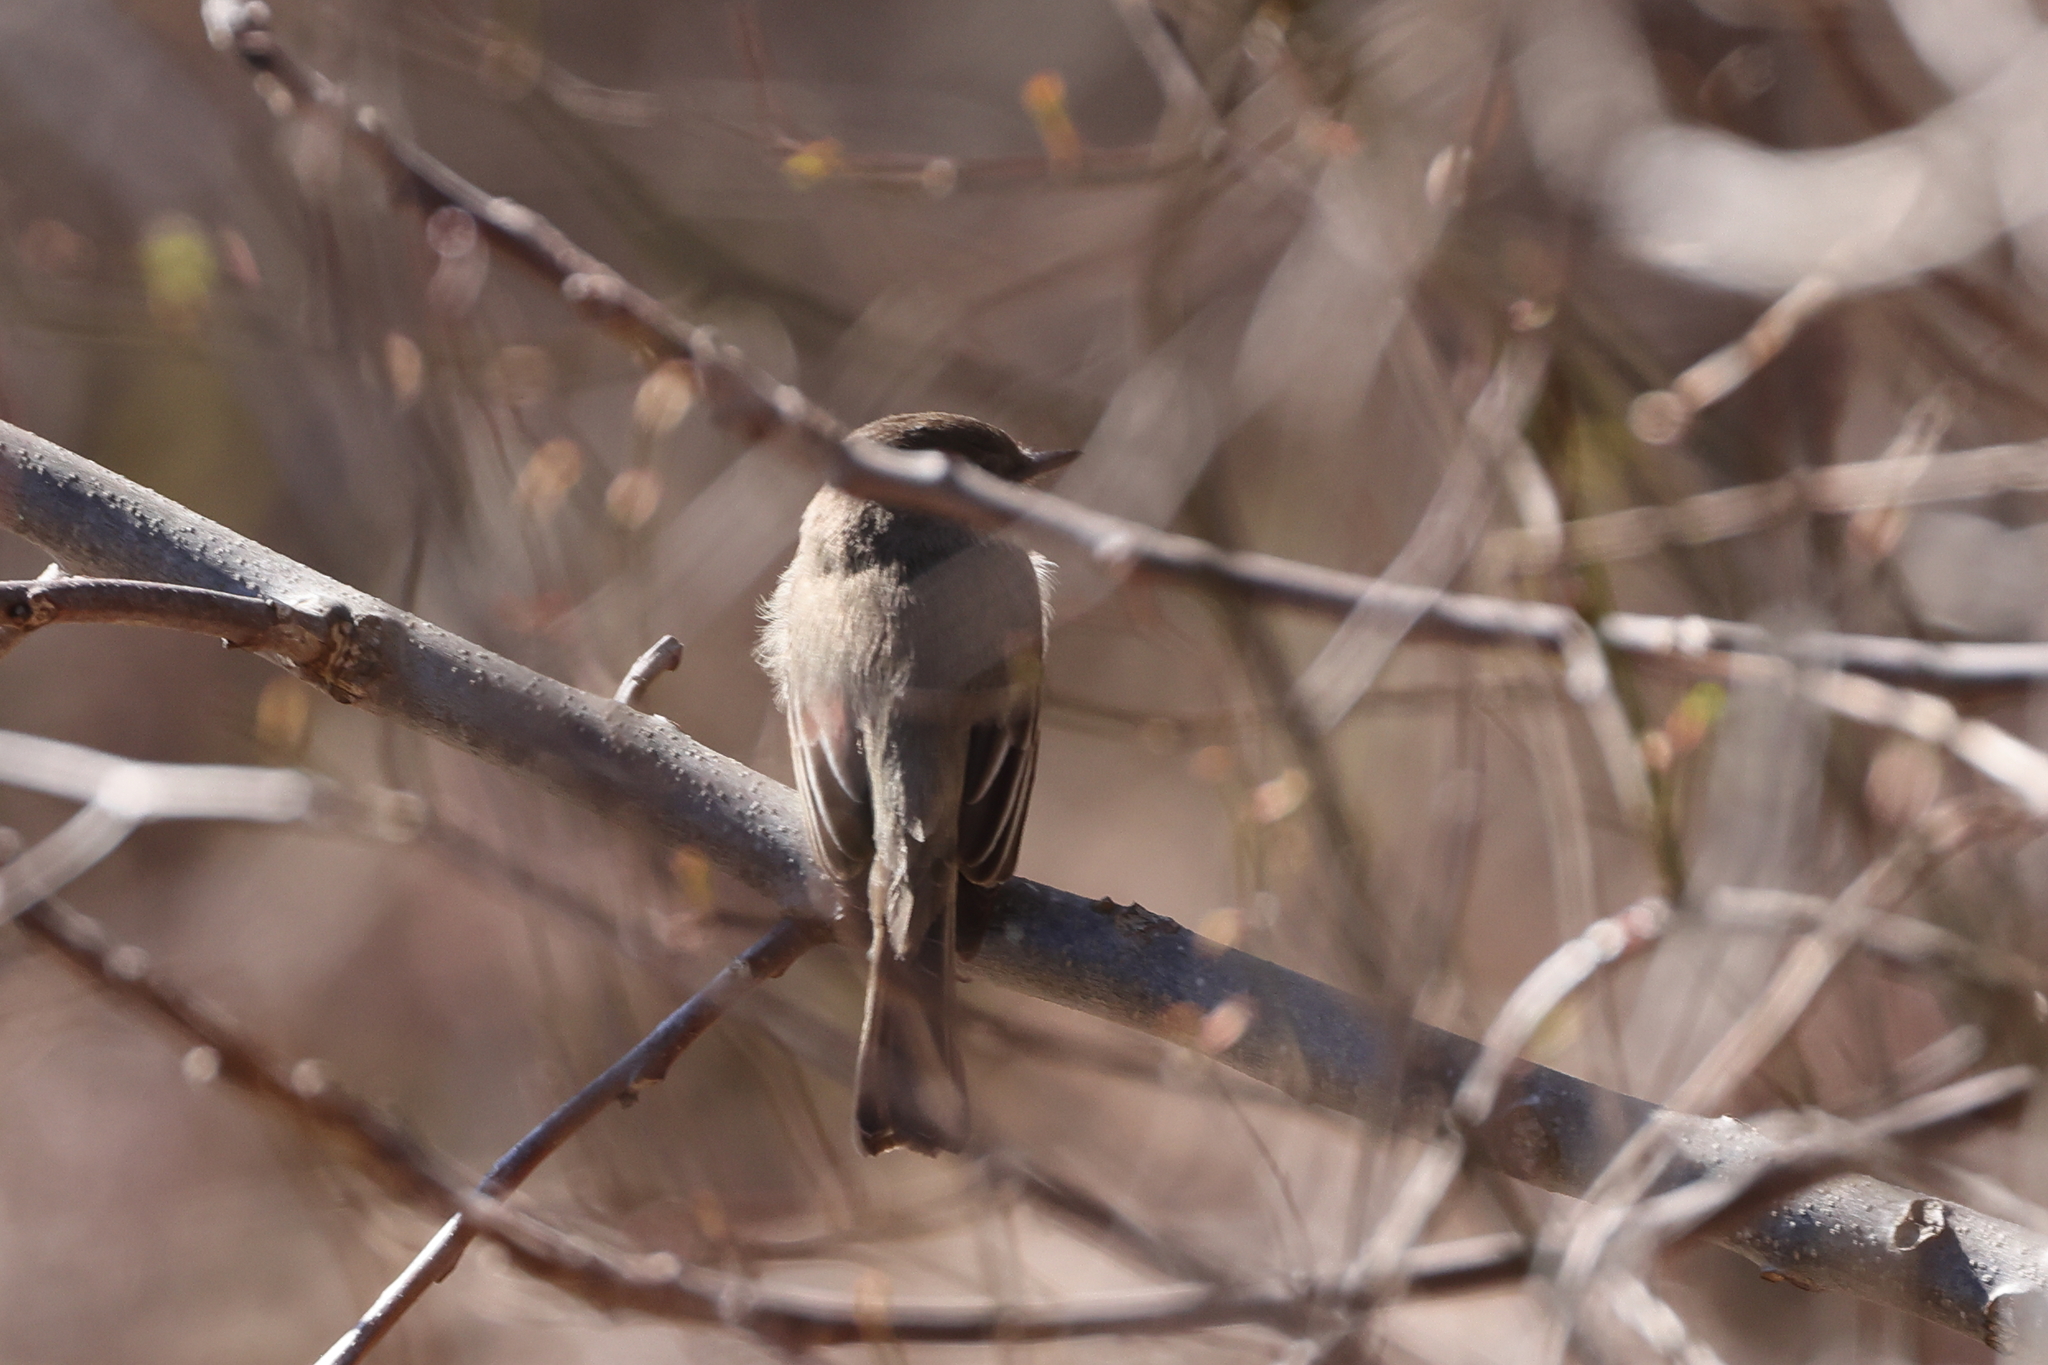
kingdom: Animalia
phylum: Chordata
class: Aves
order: Passeriformes
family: Tyrannidae
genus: Sayornis
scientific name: Sayornis phoebe
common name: Eastern phoebe
